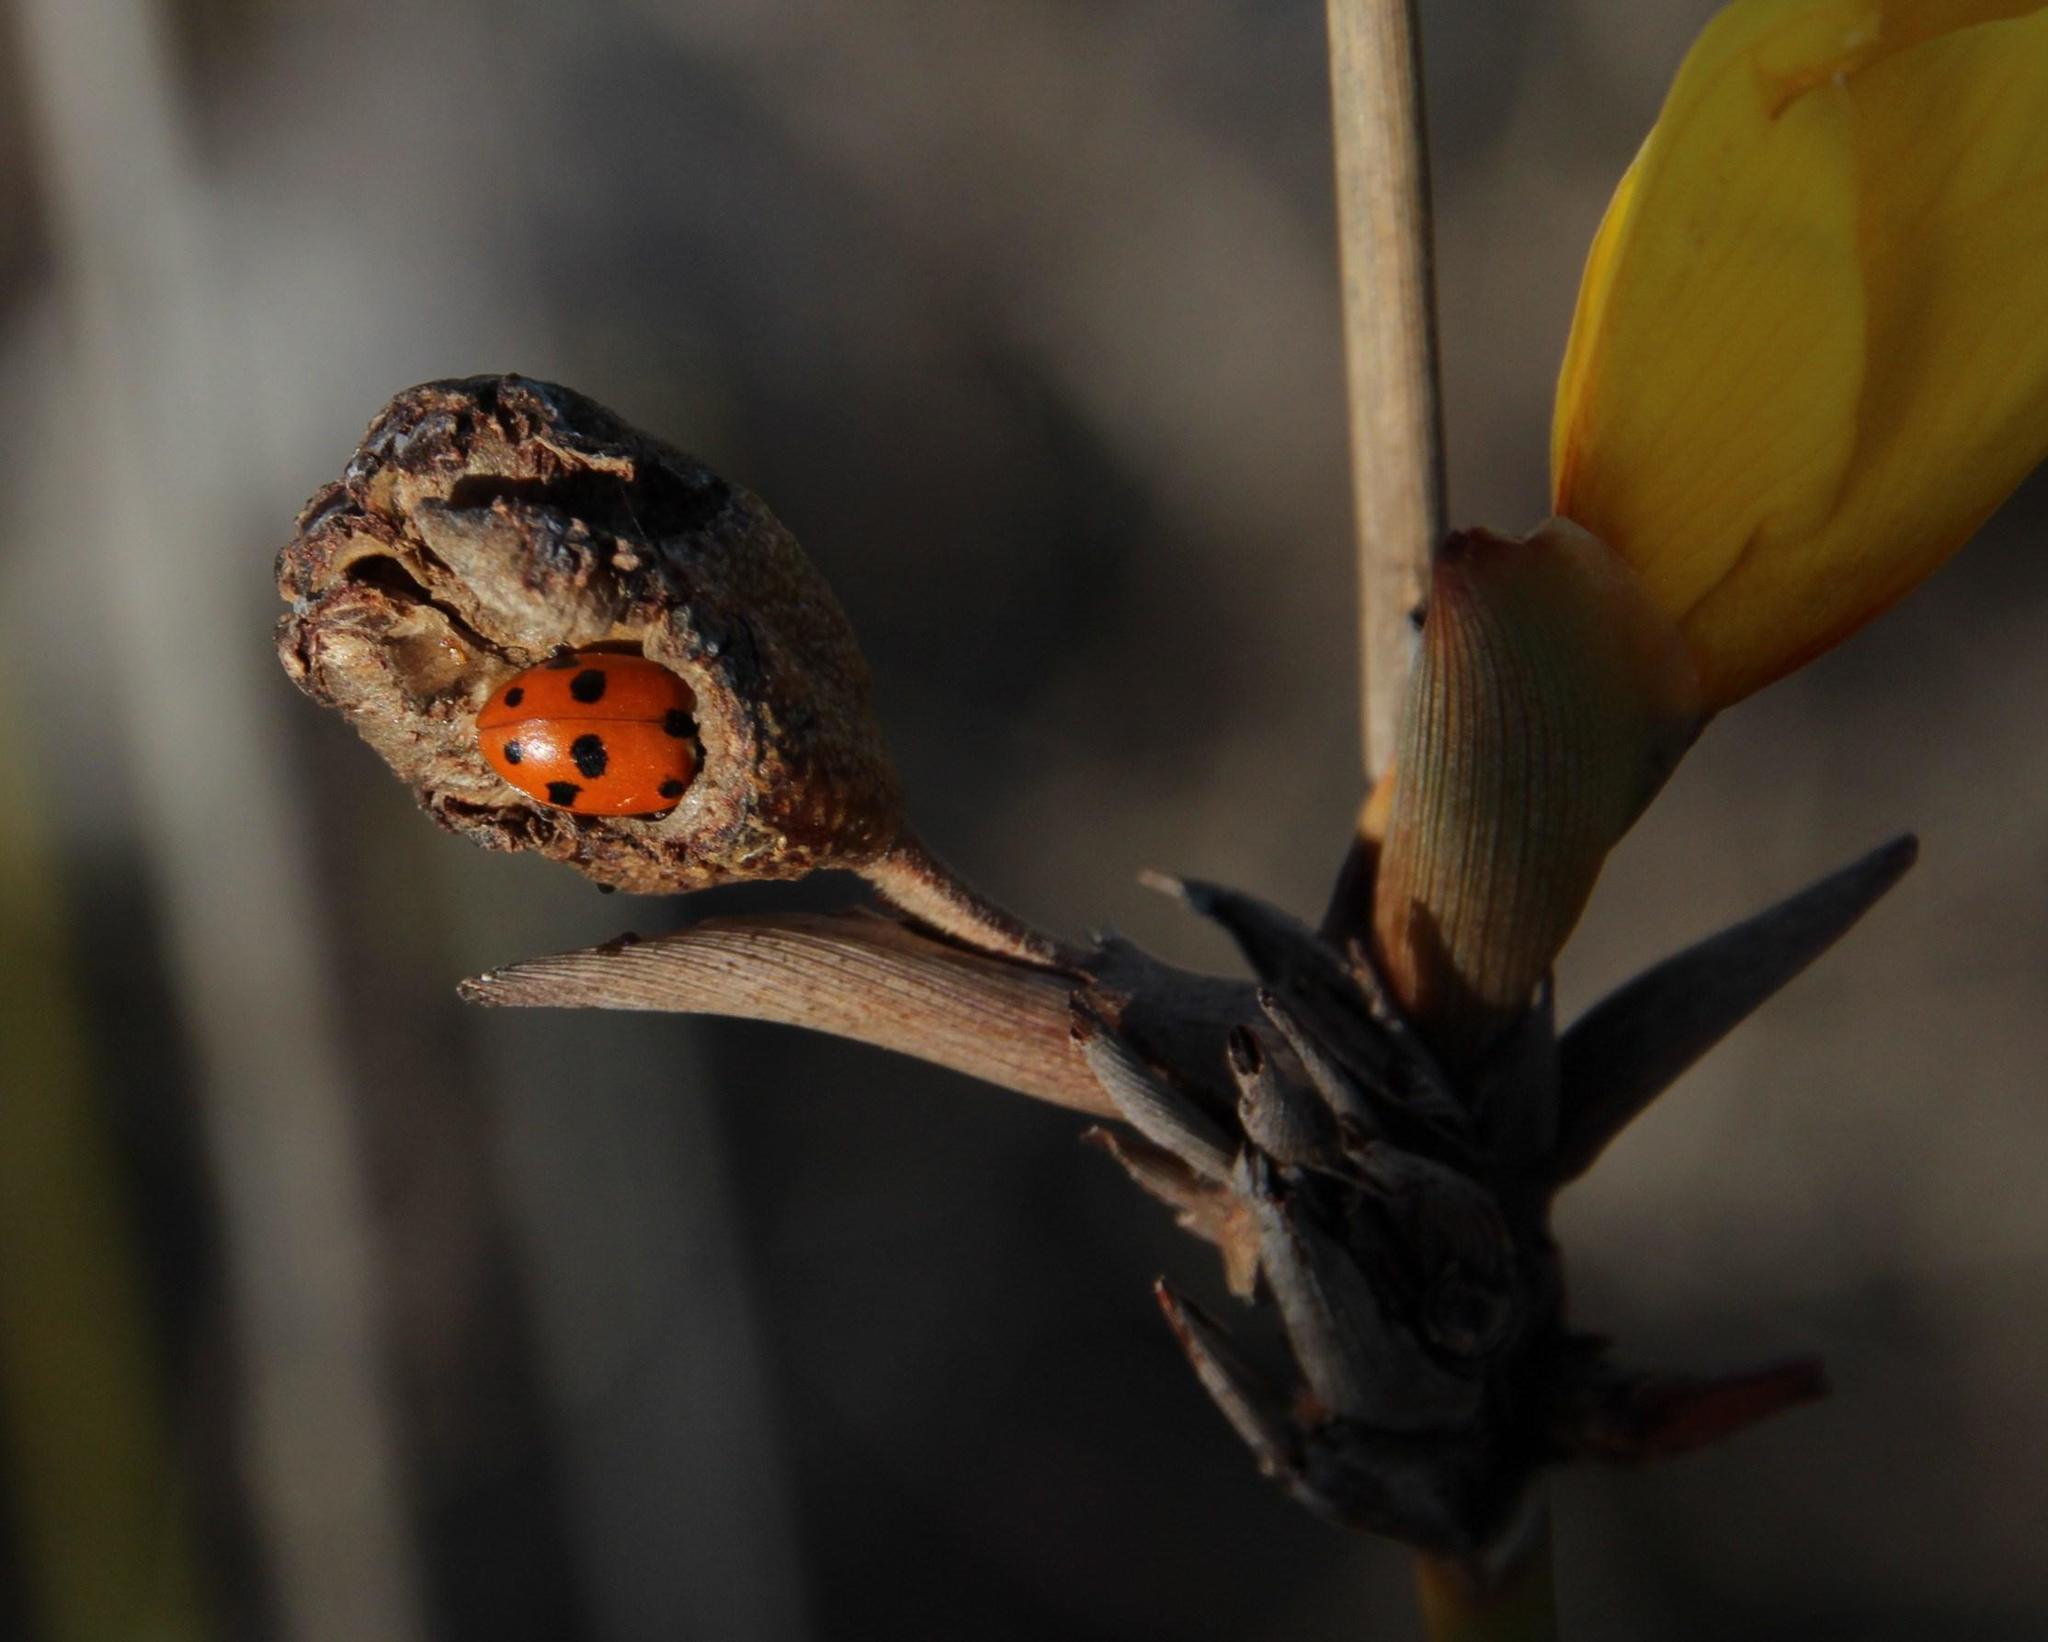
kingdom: Animalia
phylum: Arthropoda
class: Insecta
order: Coleoptera
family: Coccinellidae
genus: Hippodamia
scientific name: Hippodamia variegata
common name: Ladybird beetle
